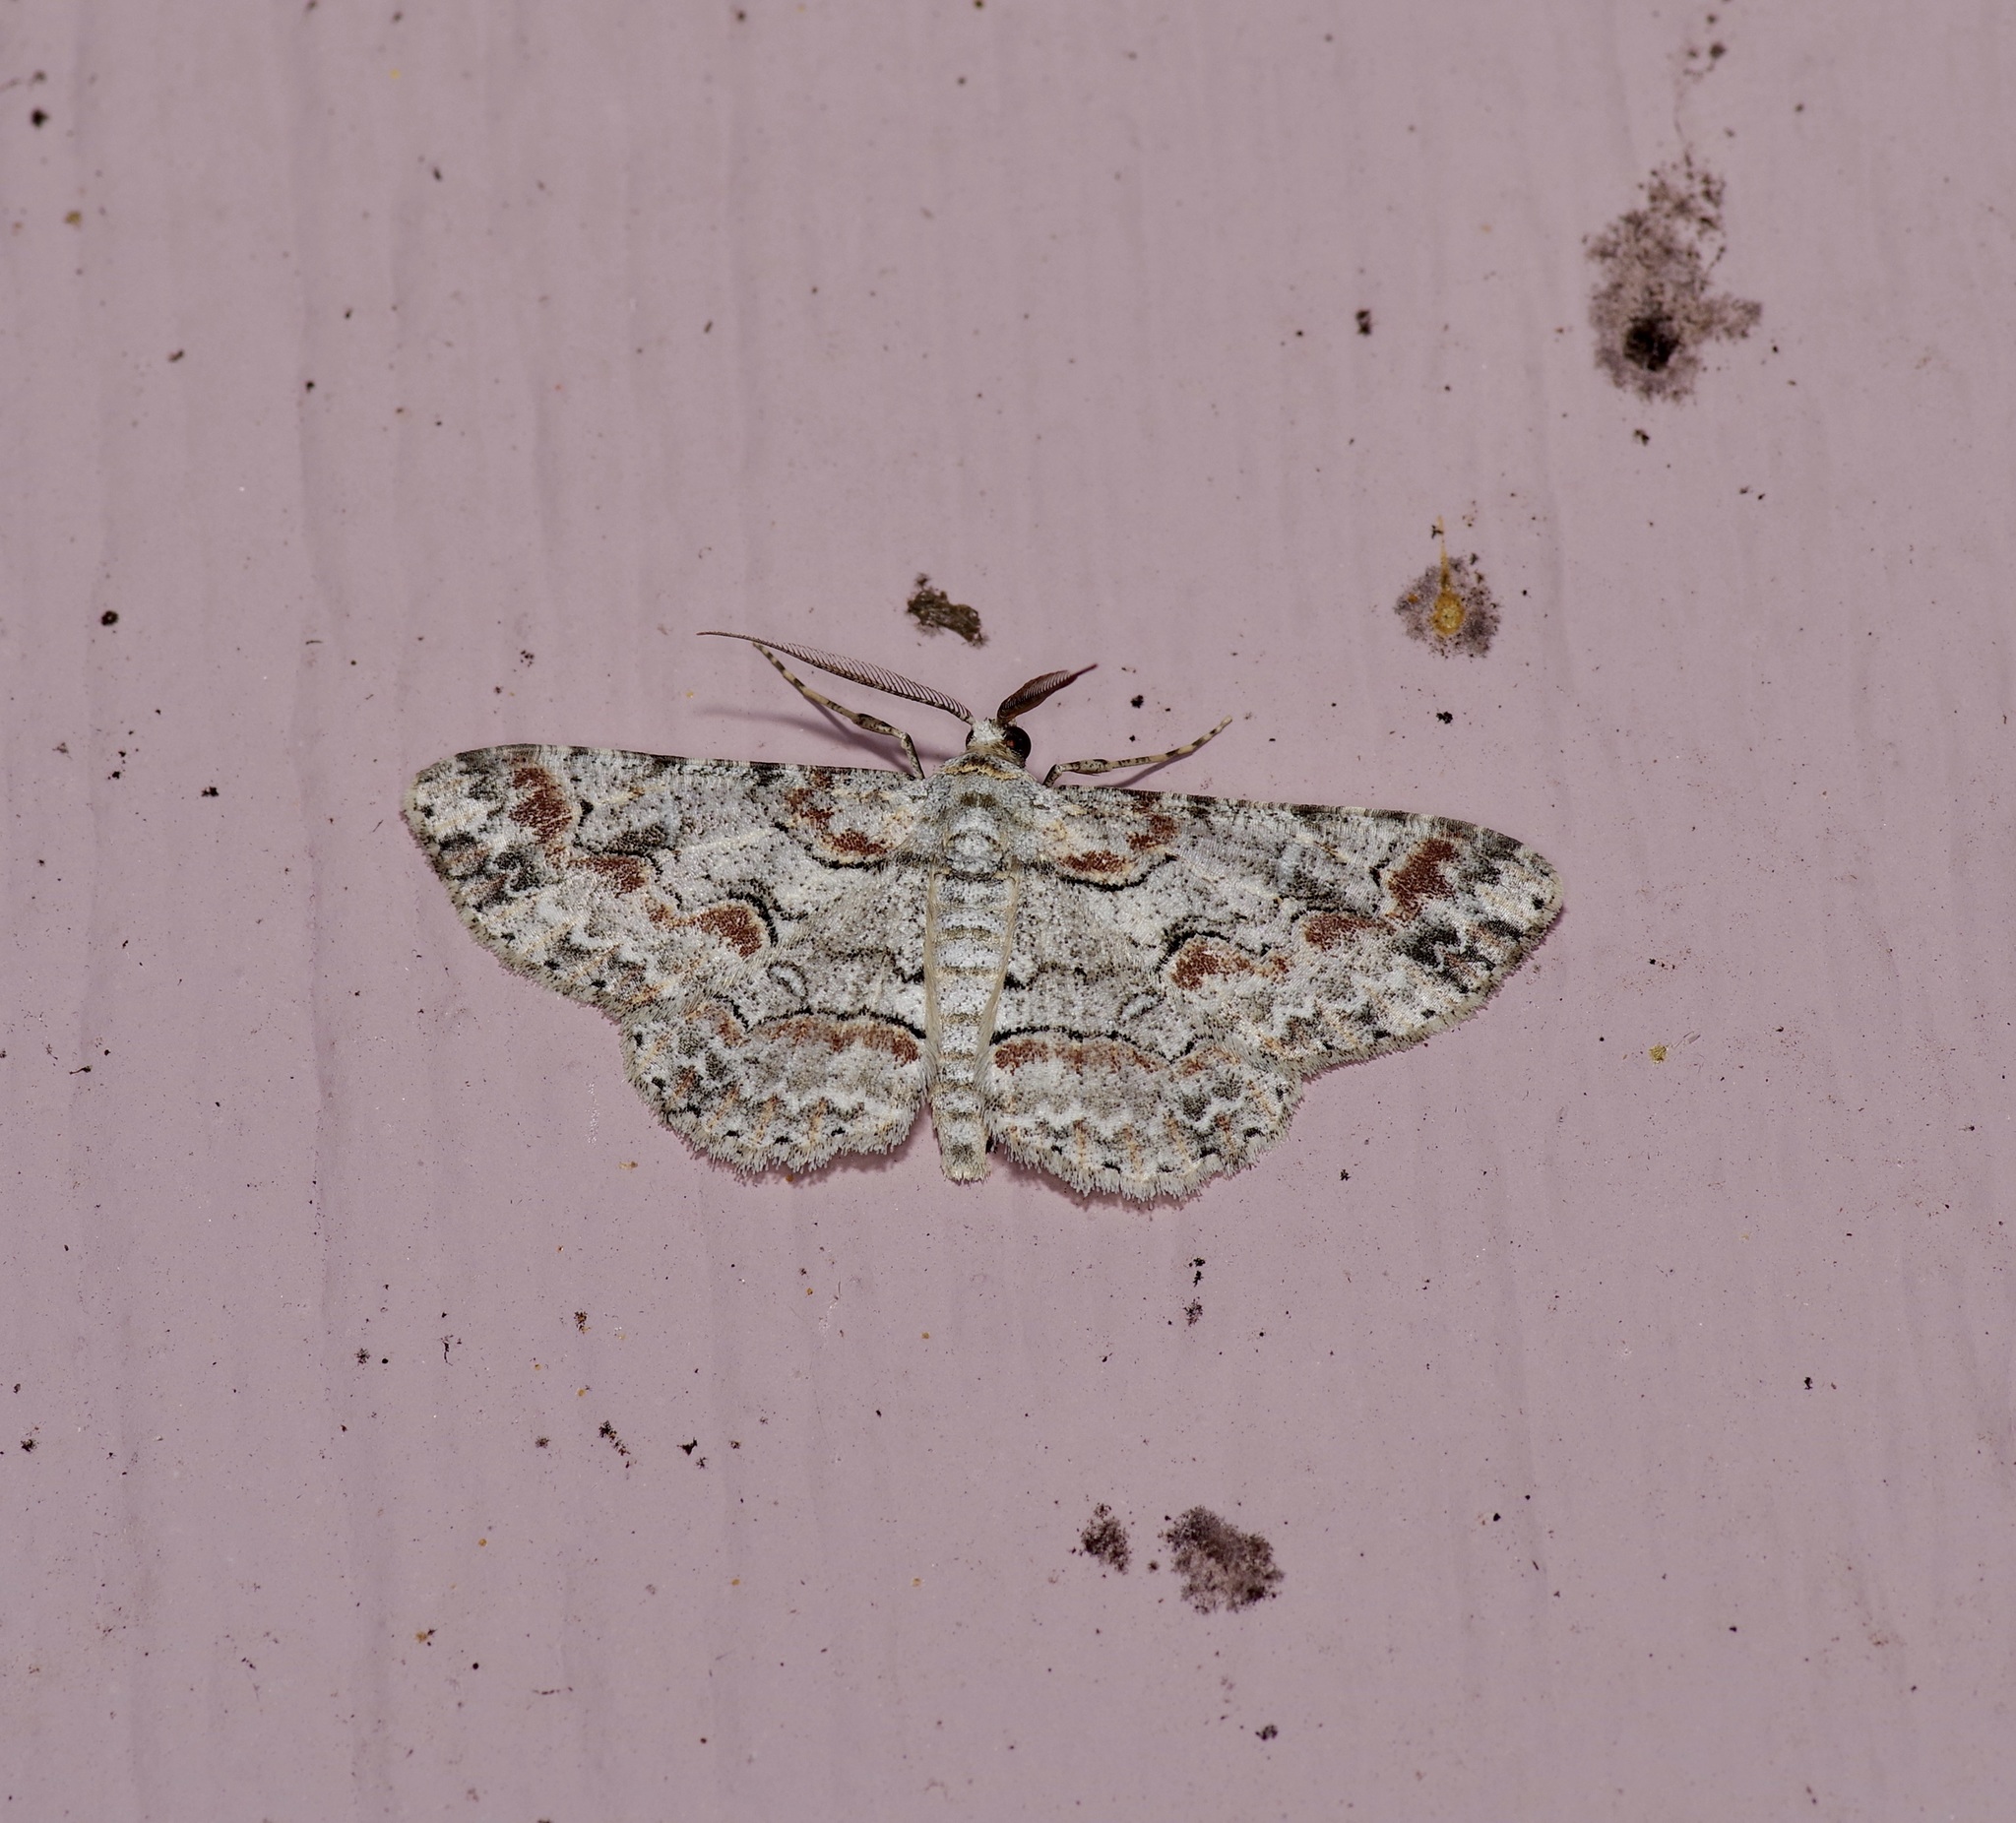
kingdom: Animalia
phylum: Arthropoda
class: Insecta
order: Lepidoptera
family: Geometridae
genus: Iridopsis
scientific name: Iridopsis defectaria
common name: Brown-shaded gray
